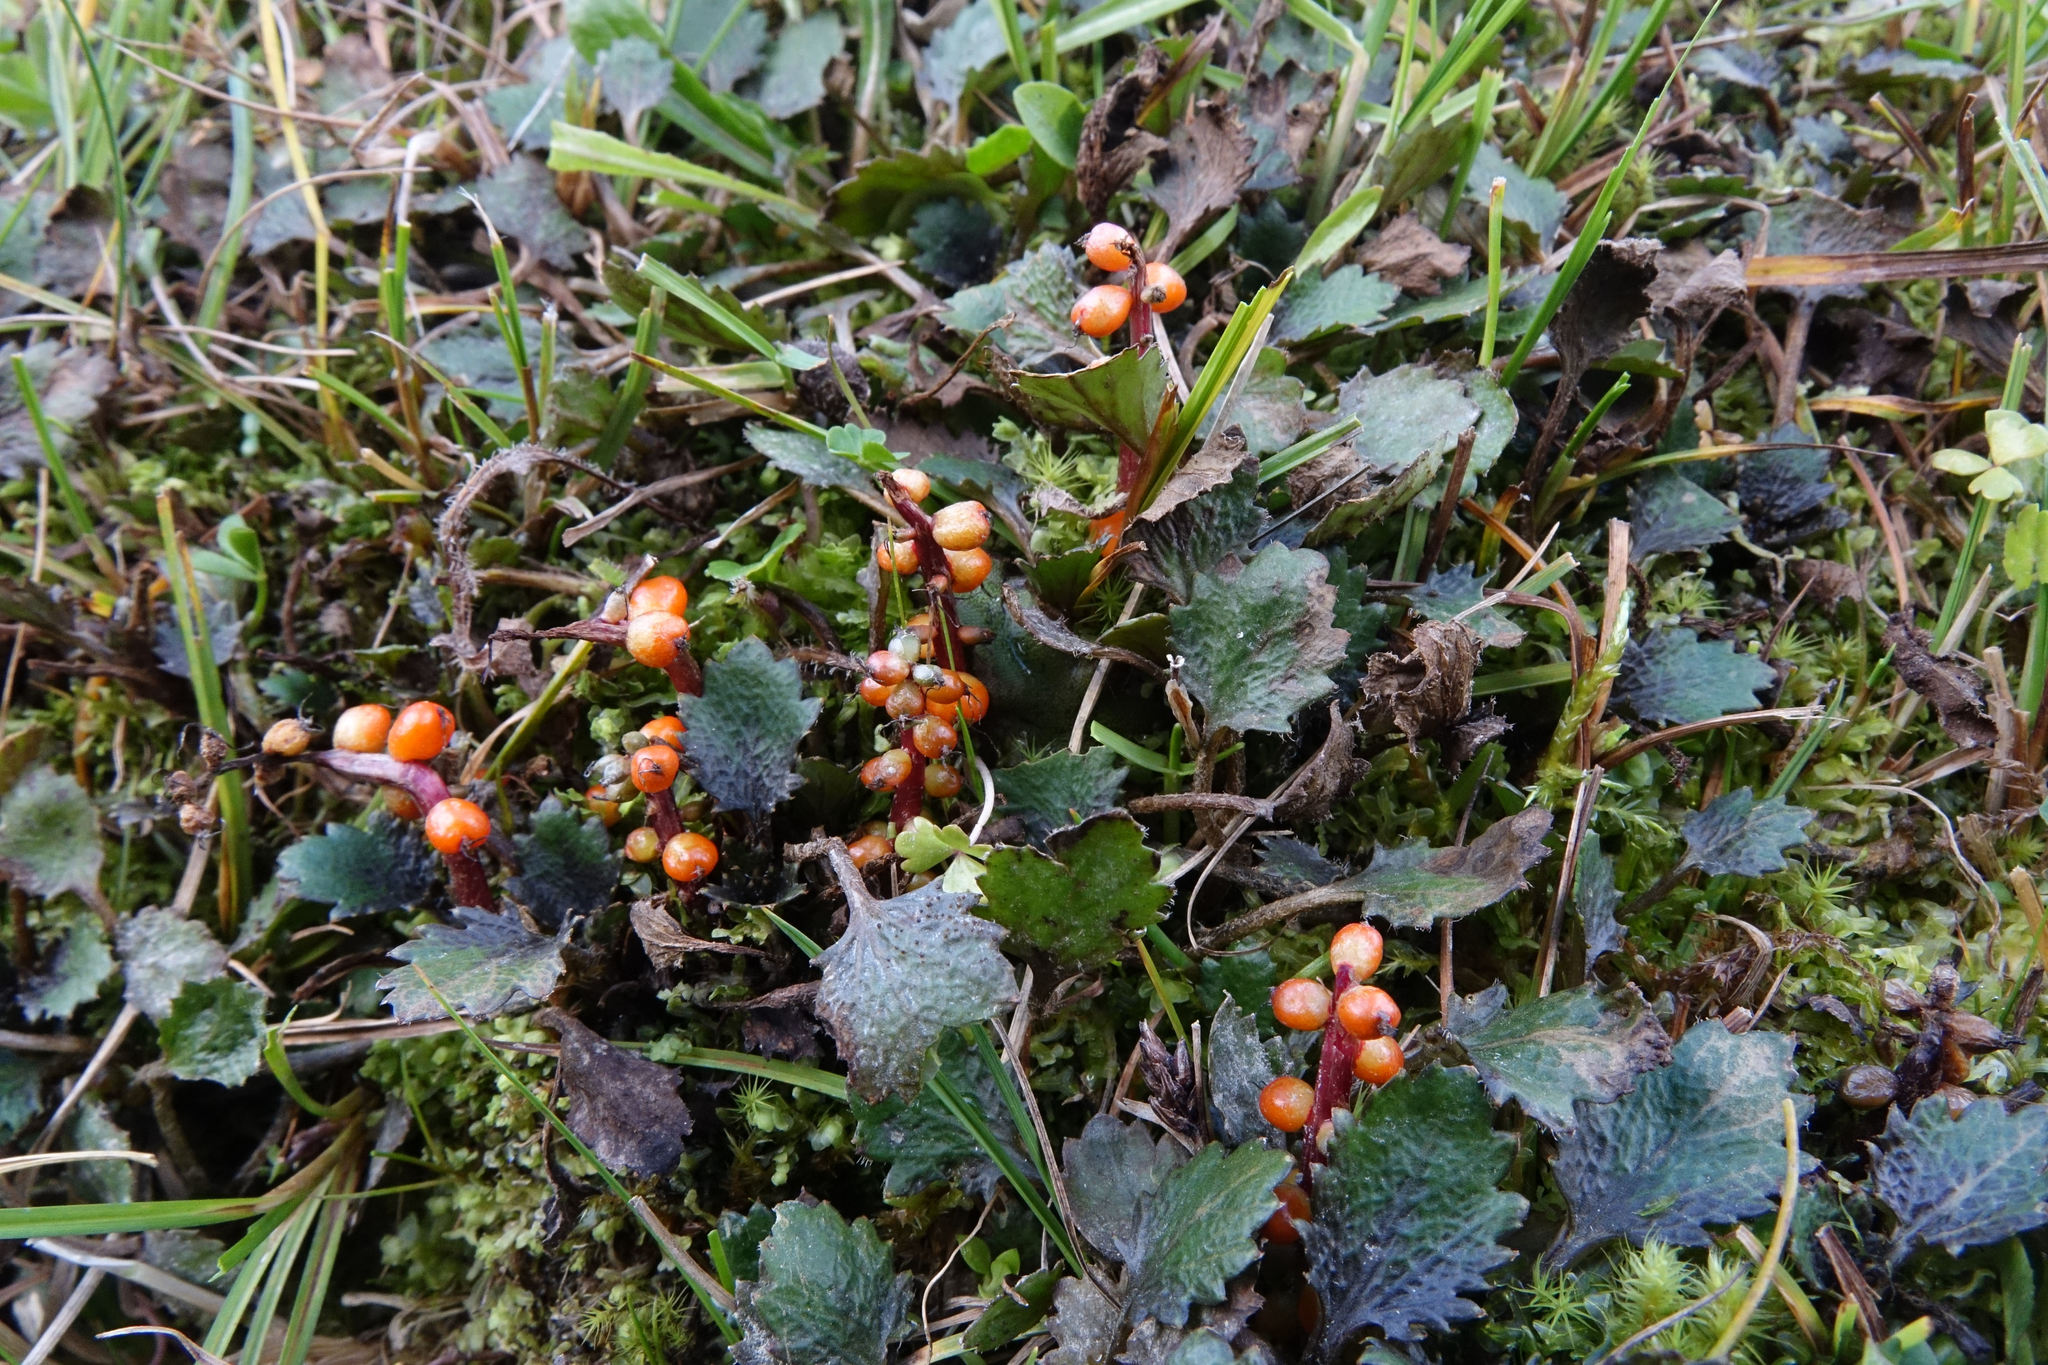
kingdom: Plantae
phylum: Tracheophyta
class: Magnoliopsida
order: Gunnerales
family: Gunneraceae
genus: Gunnera
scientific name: Gunnera dentata
